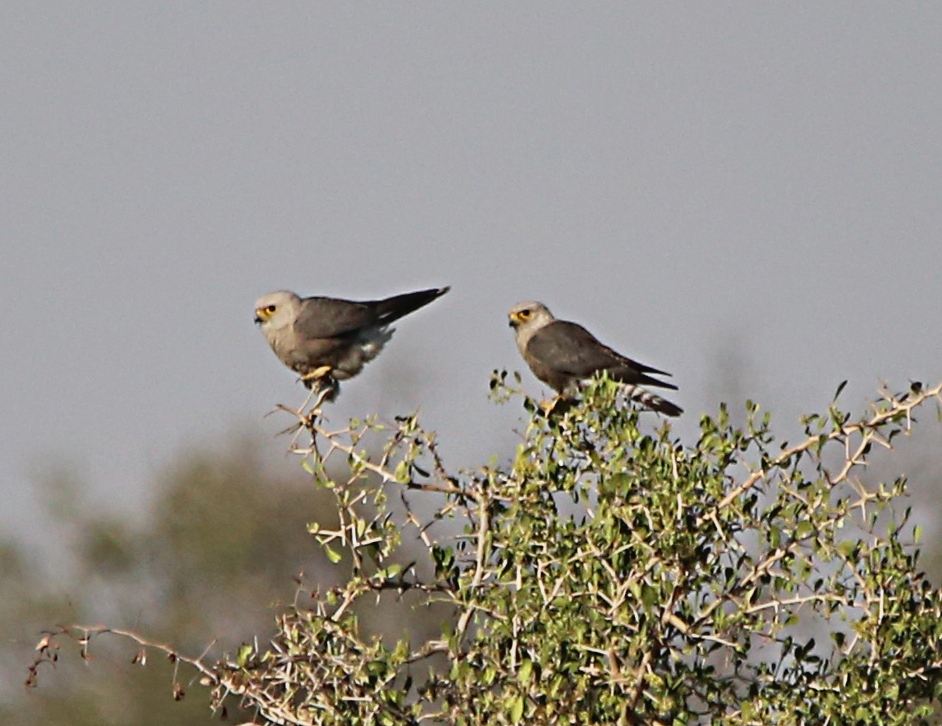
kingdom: Animalia
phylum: Chordata
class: Aves
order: Falconiformes
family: Falconidae
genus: Falco
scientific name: Falco dickinsoni
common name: Dickinson's kestrel
